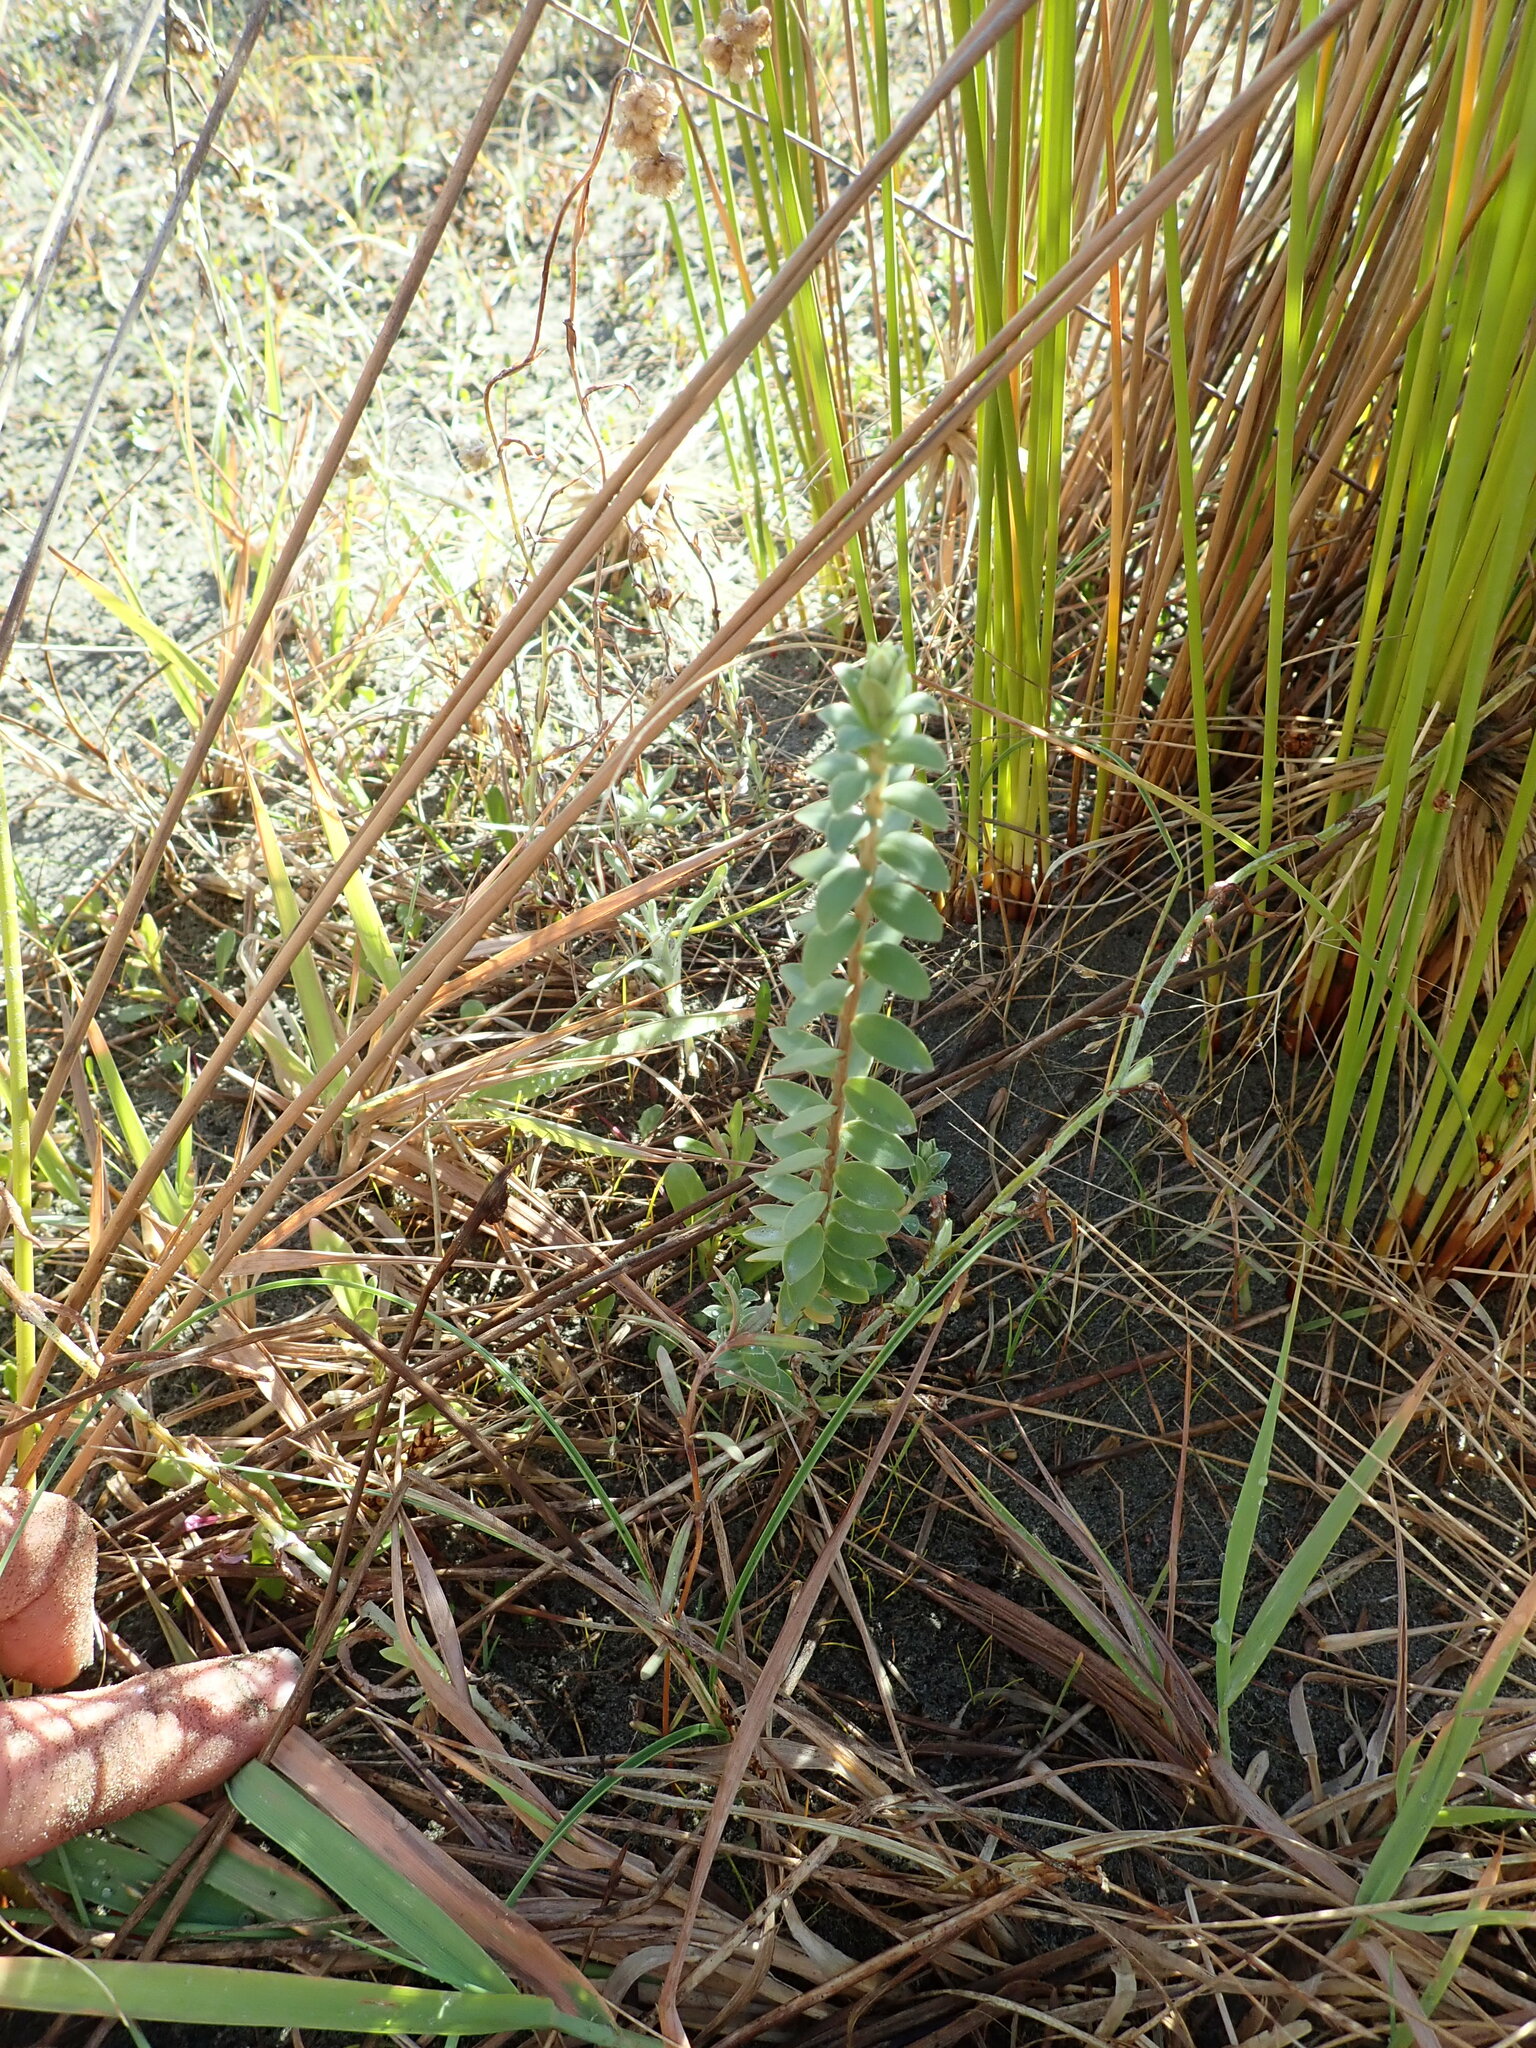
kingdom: Plantae
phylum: Tracheophyta
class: Magnoliopsida
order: Malvales
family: Thymelaeaceae
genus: Pimelea
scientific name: Pimelea villosa
